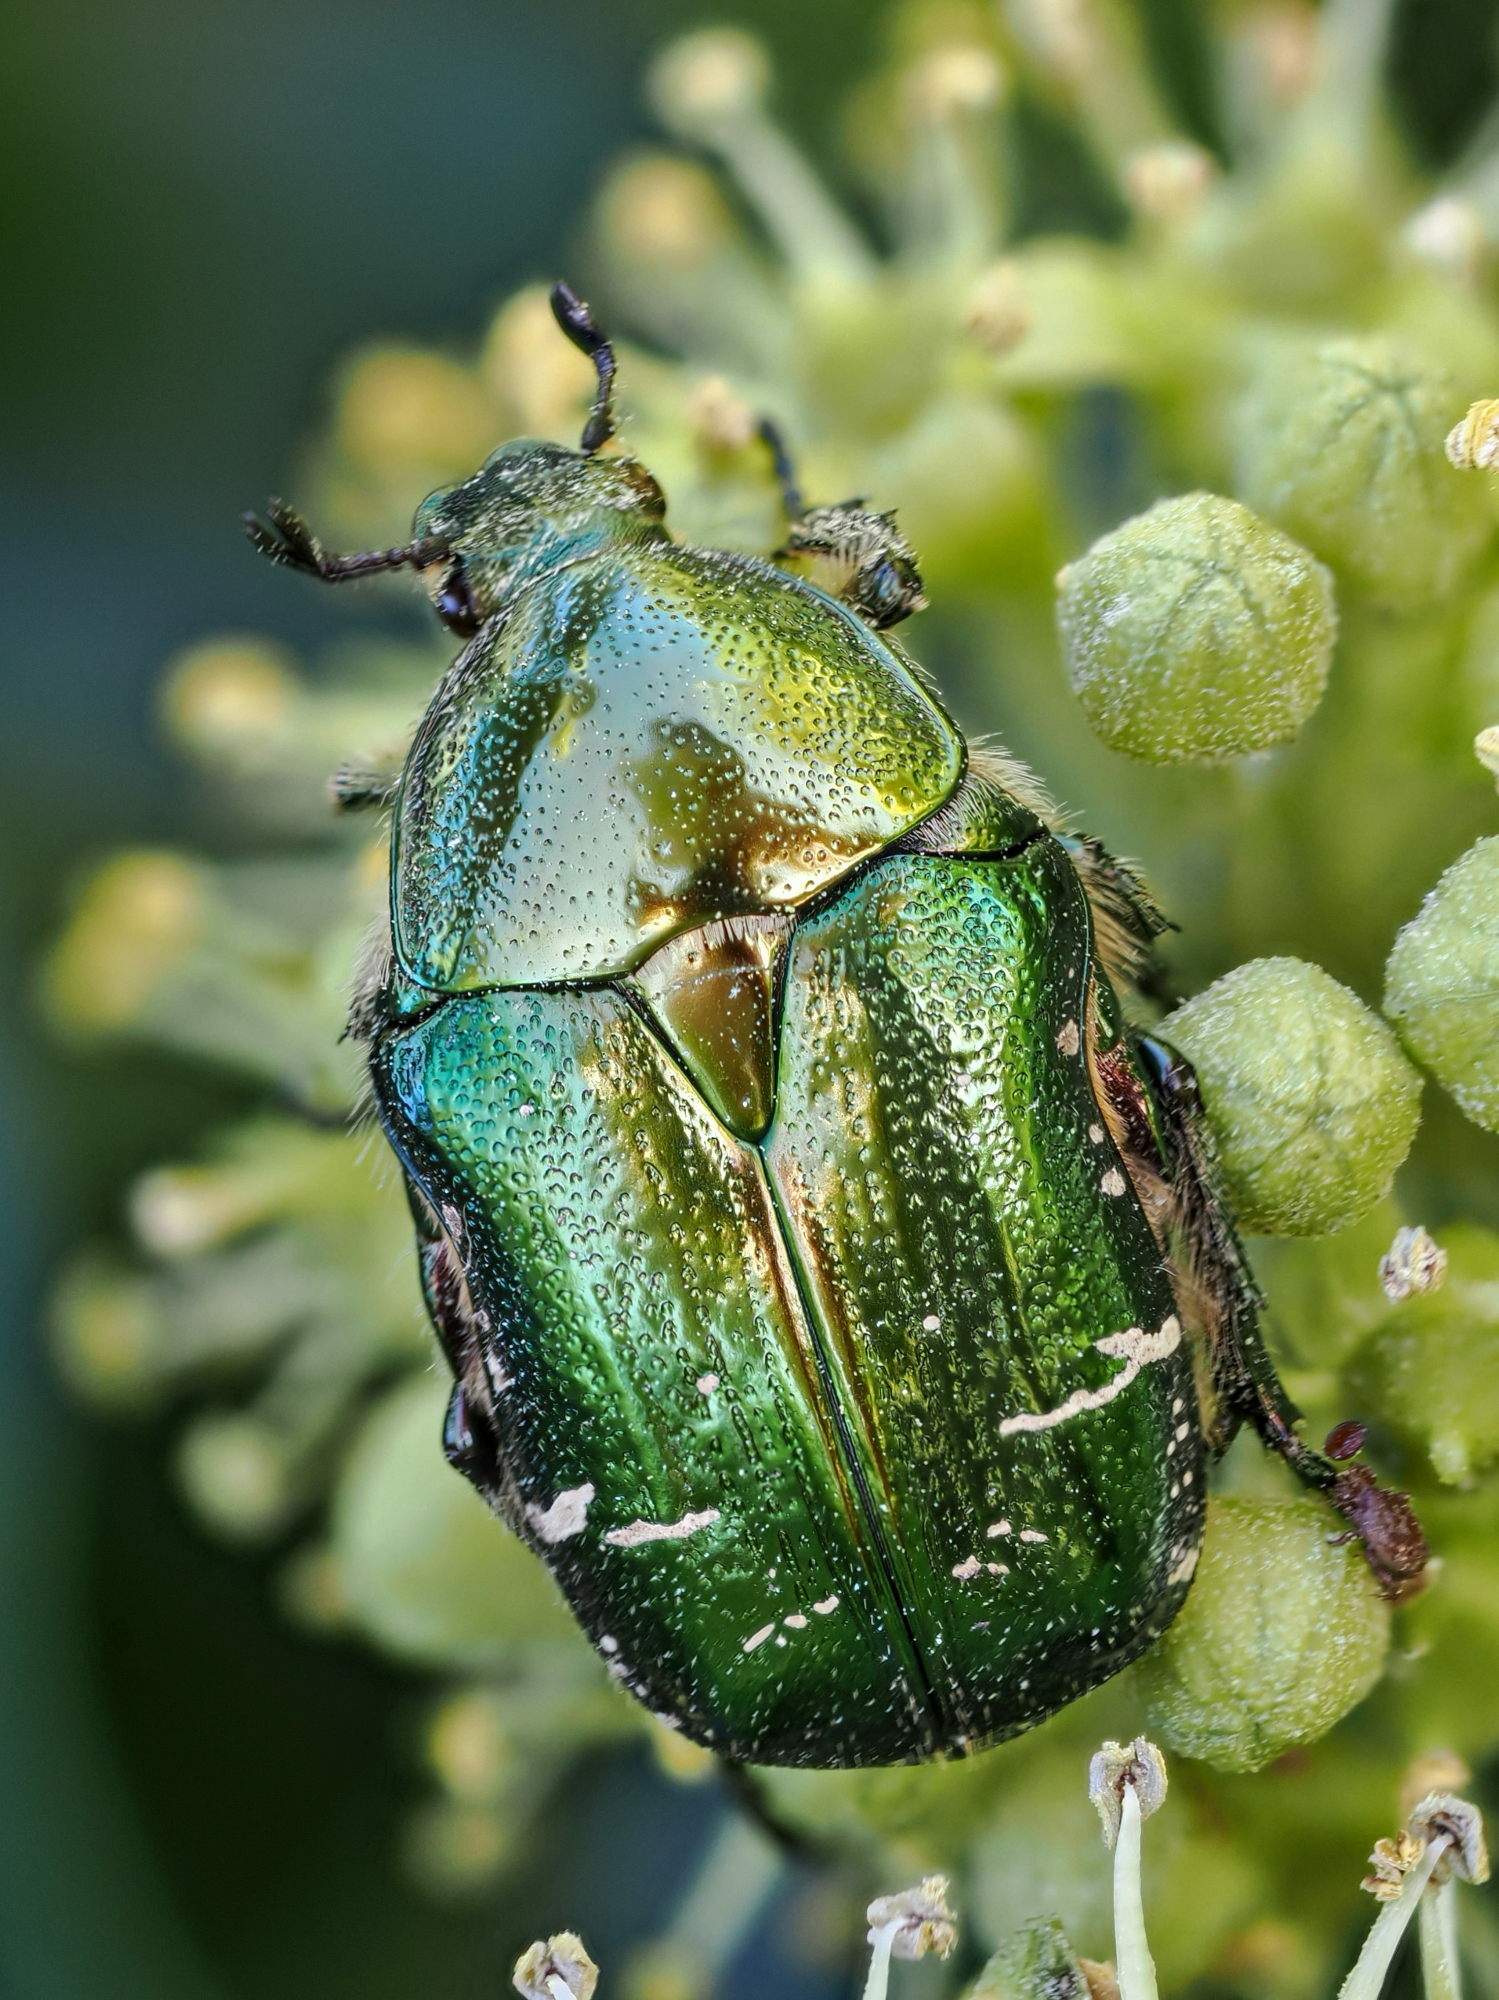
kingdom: Animalia
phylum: Arthropoda
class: Insecta
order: Coleoptera
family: Scarabaeidae
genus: Cetonia
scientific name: Cetonia aurata
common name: Rose chafer
